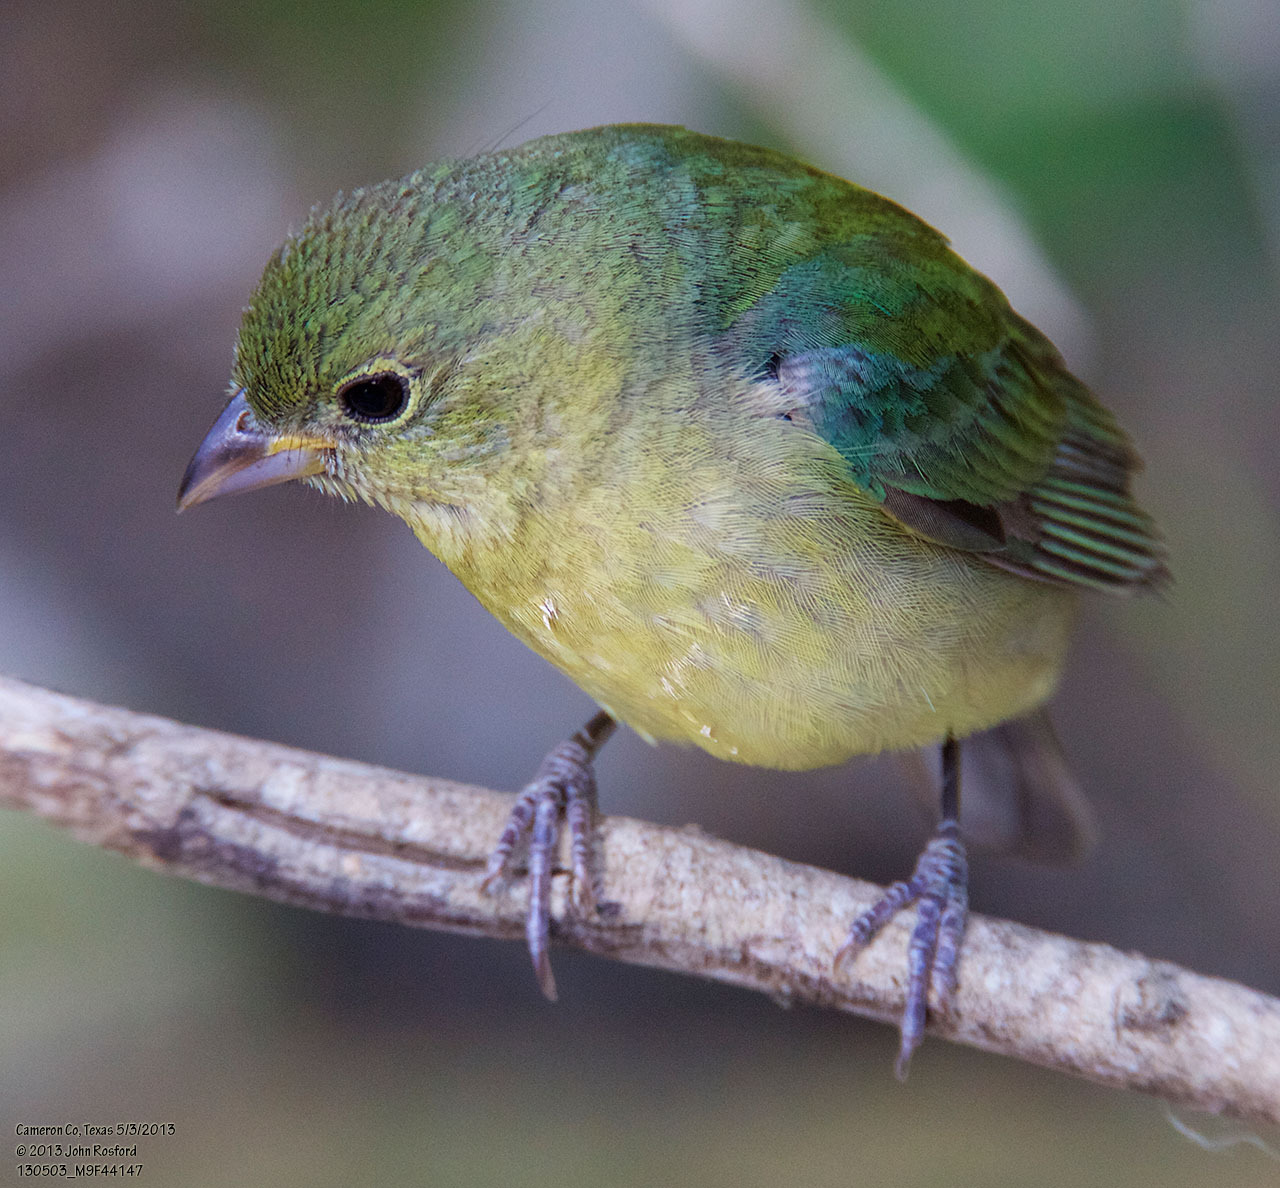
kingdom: Animalia
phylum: Chordata
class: Aves
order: Passeriformes
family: Cardinalidae
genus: Passerina
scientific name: Passerina ciris
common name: Painted bunting
